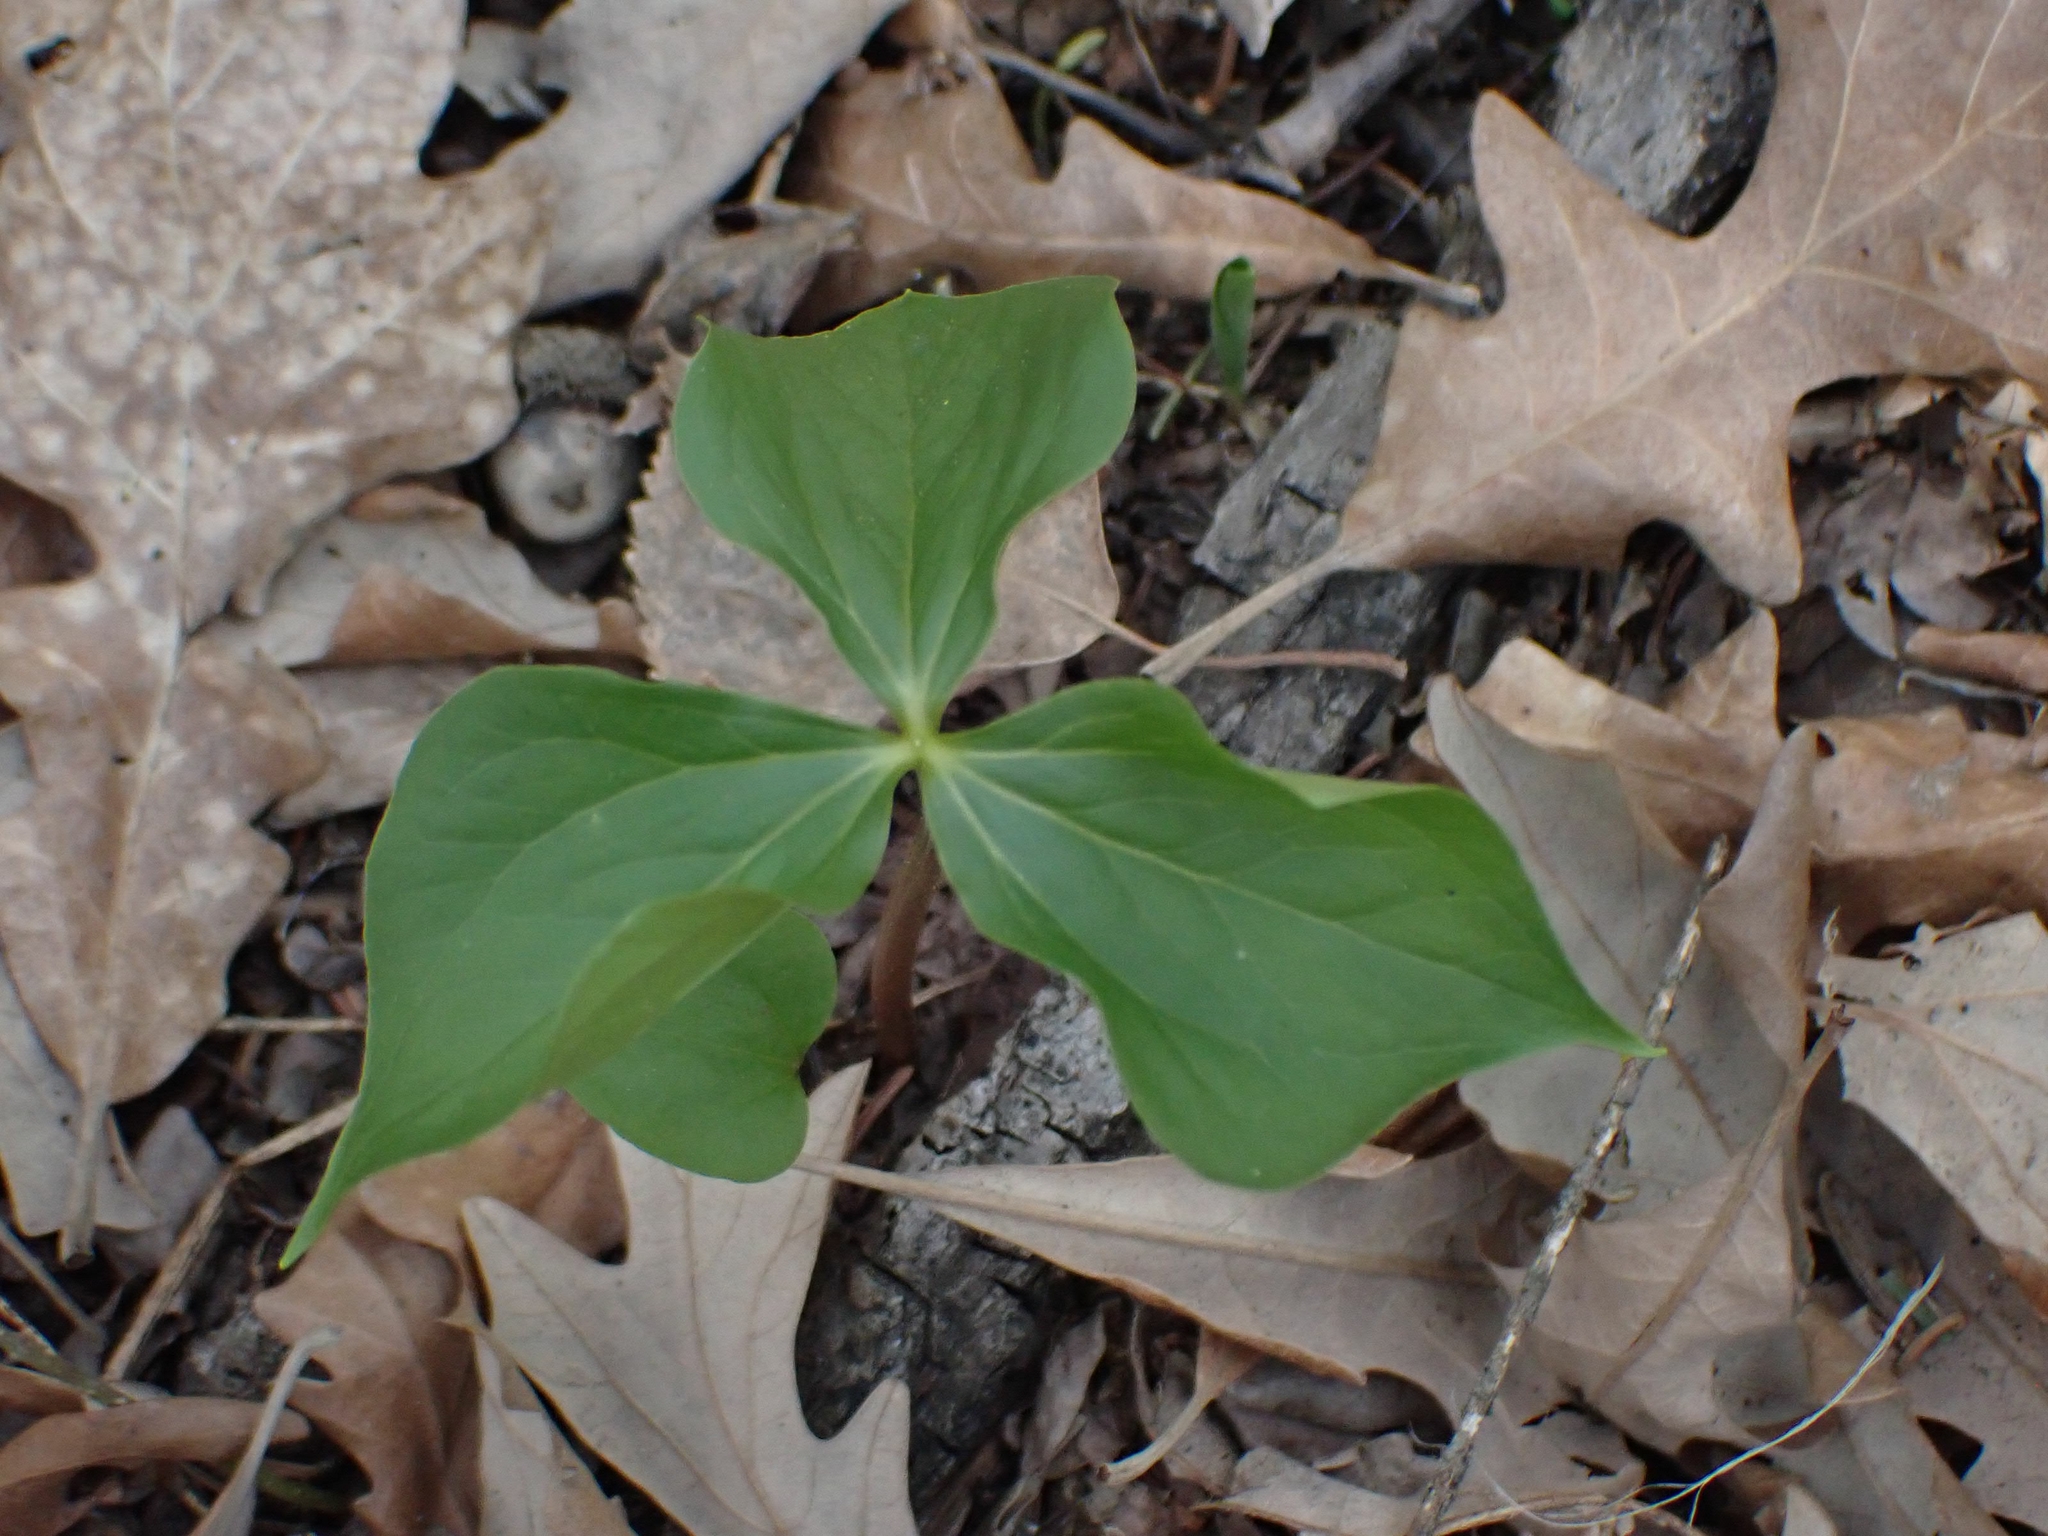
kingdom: Plantae
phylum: Tracheophyta
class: Liliopsida
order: Liliales
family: Melanthiaceae
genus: Trillium
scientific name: Trillium cernuum
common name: Nodding trillium
